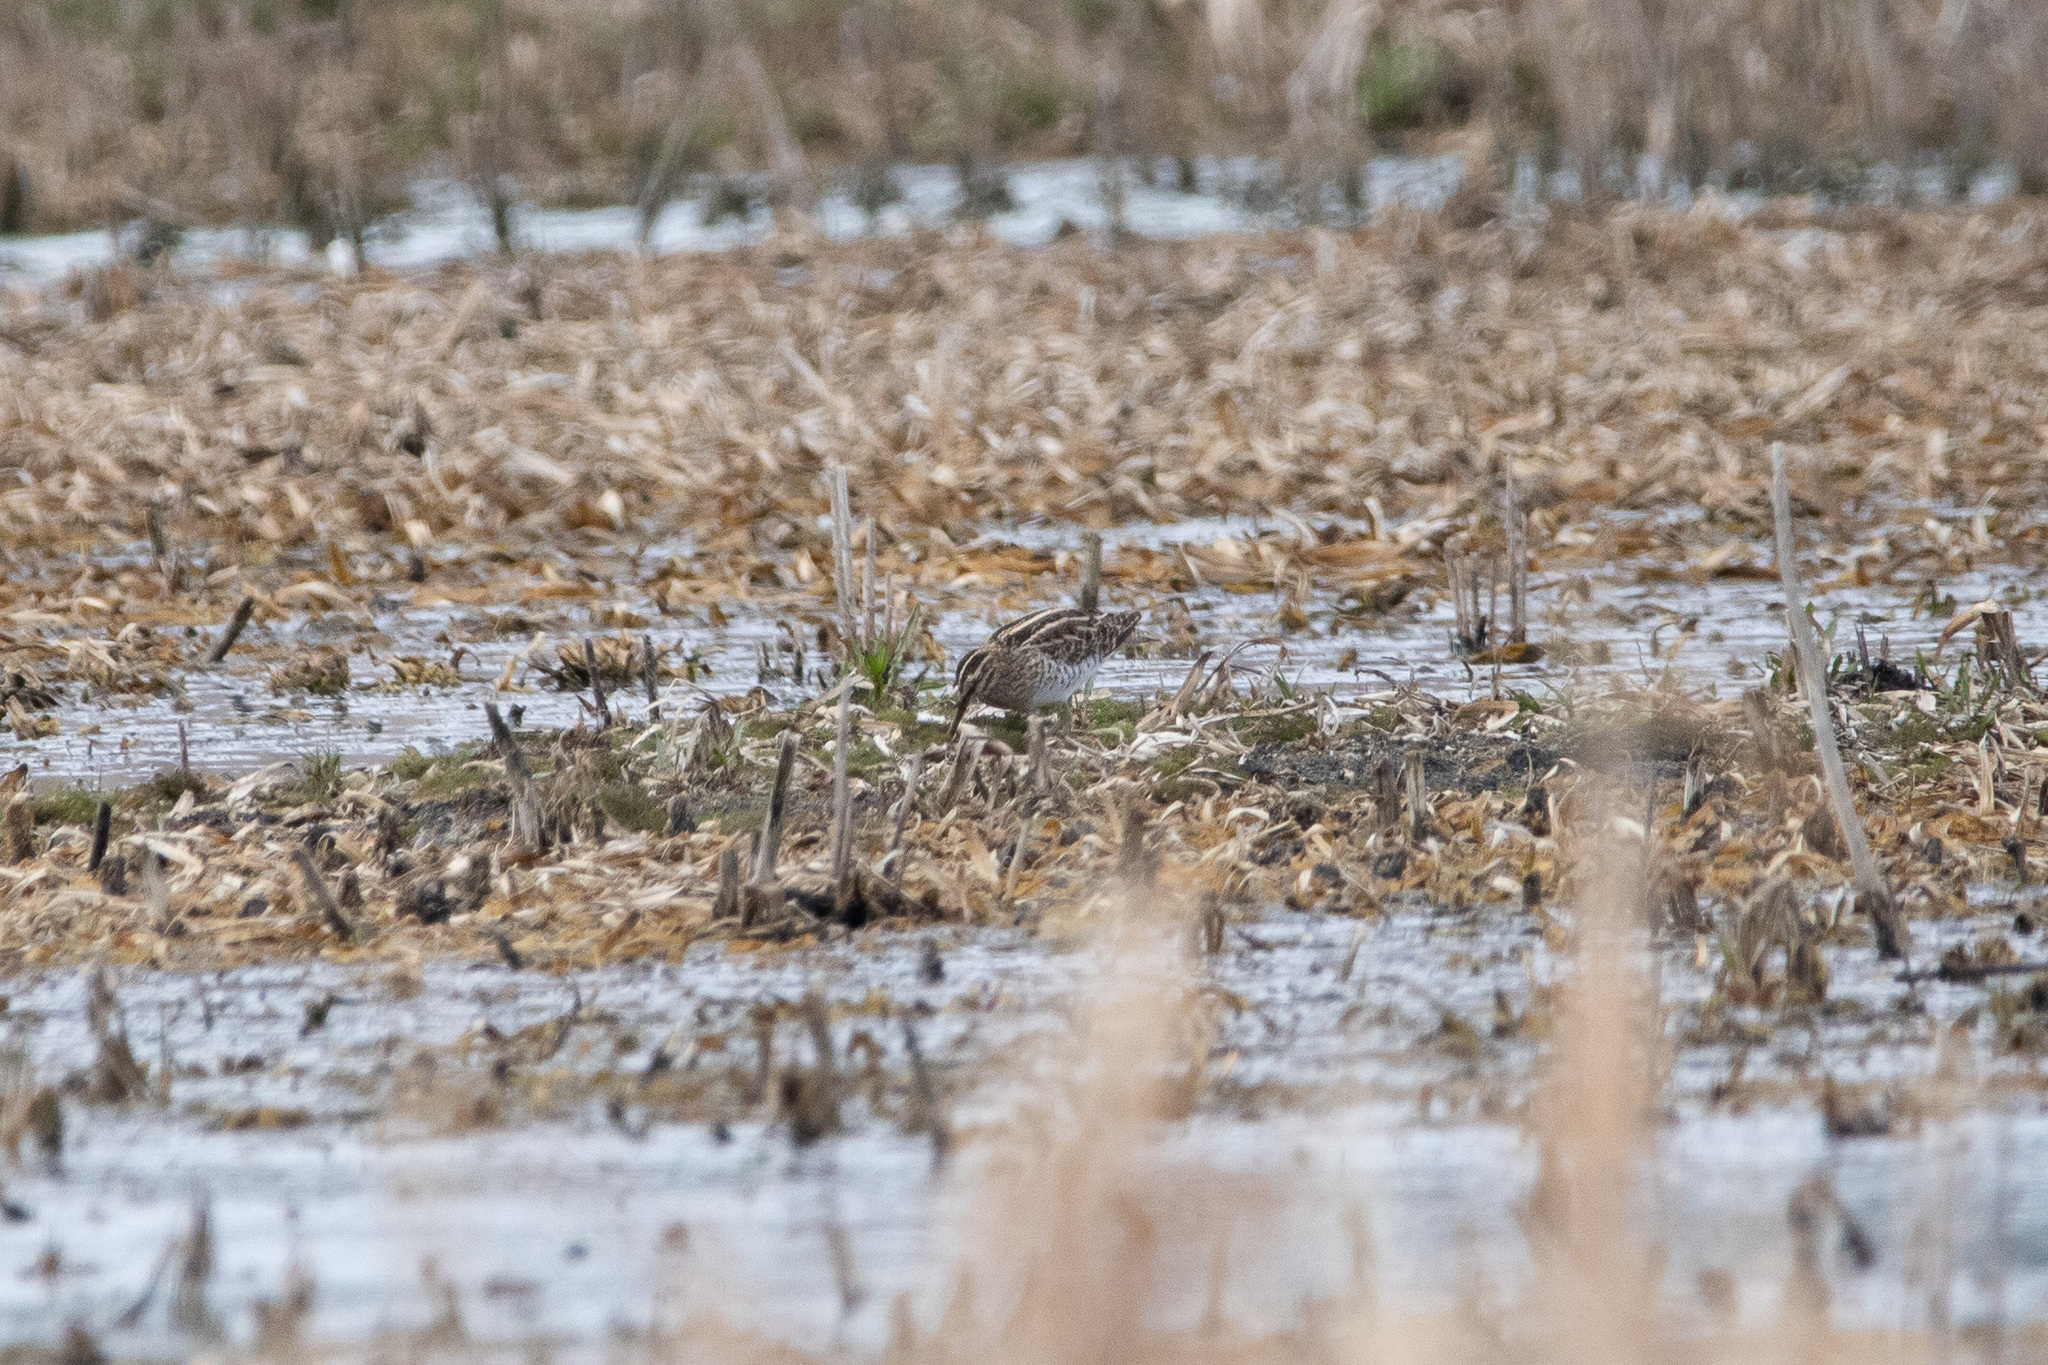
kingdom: Animalia
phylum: Chordata
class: Aves
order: Charadriiformes
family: Scolopacidae
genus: Gallinago
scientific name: Gallinago gallinago
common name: Common snipe
